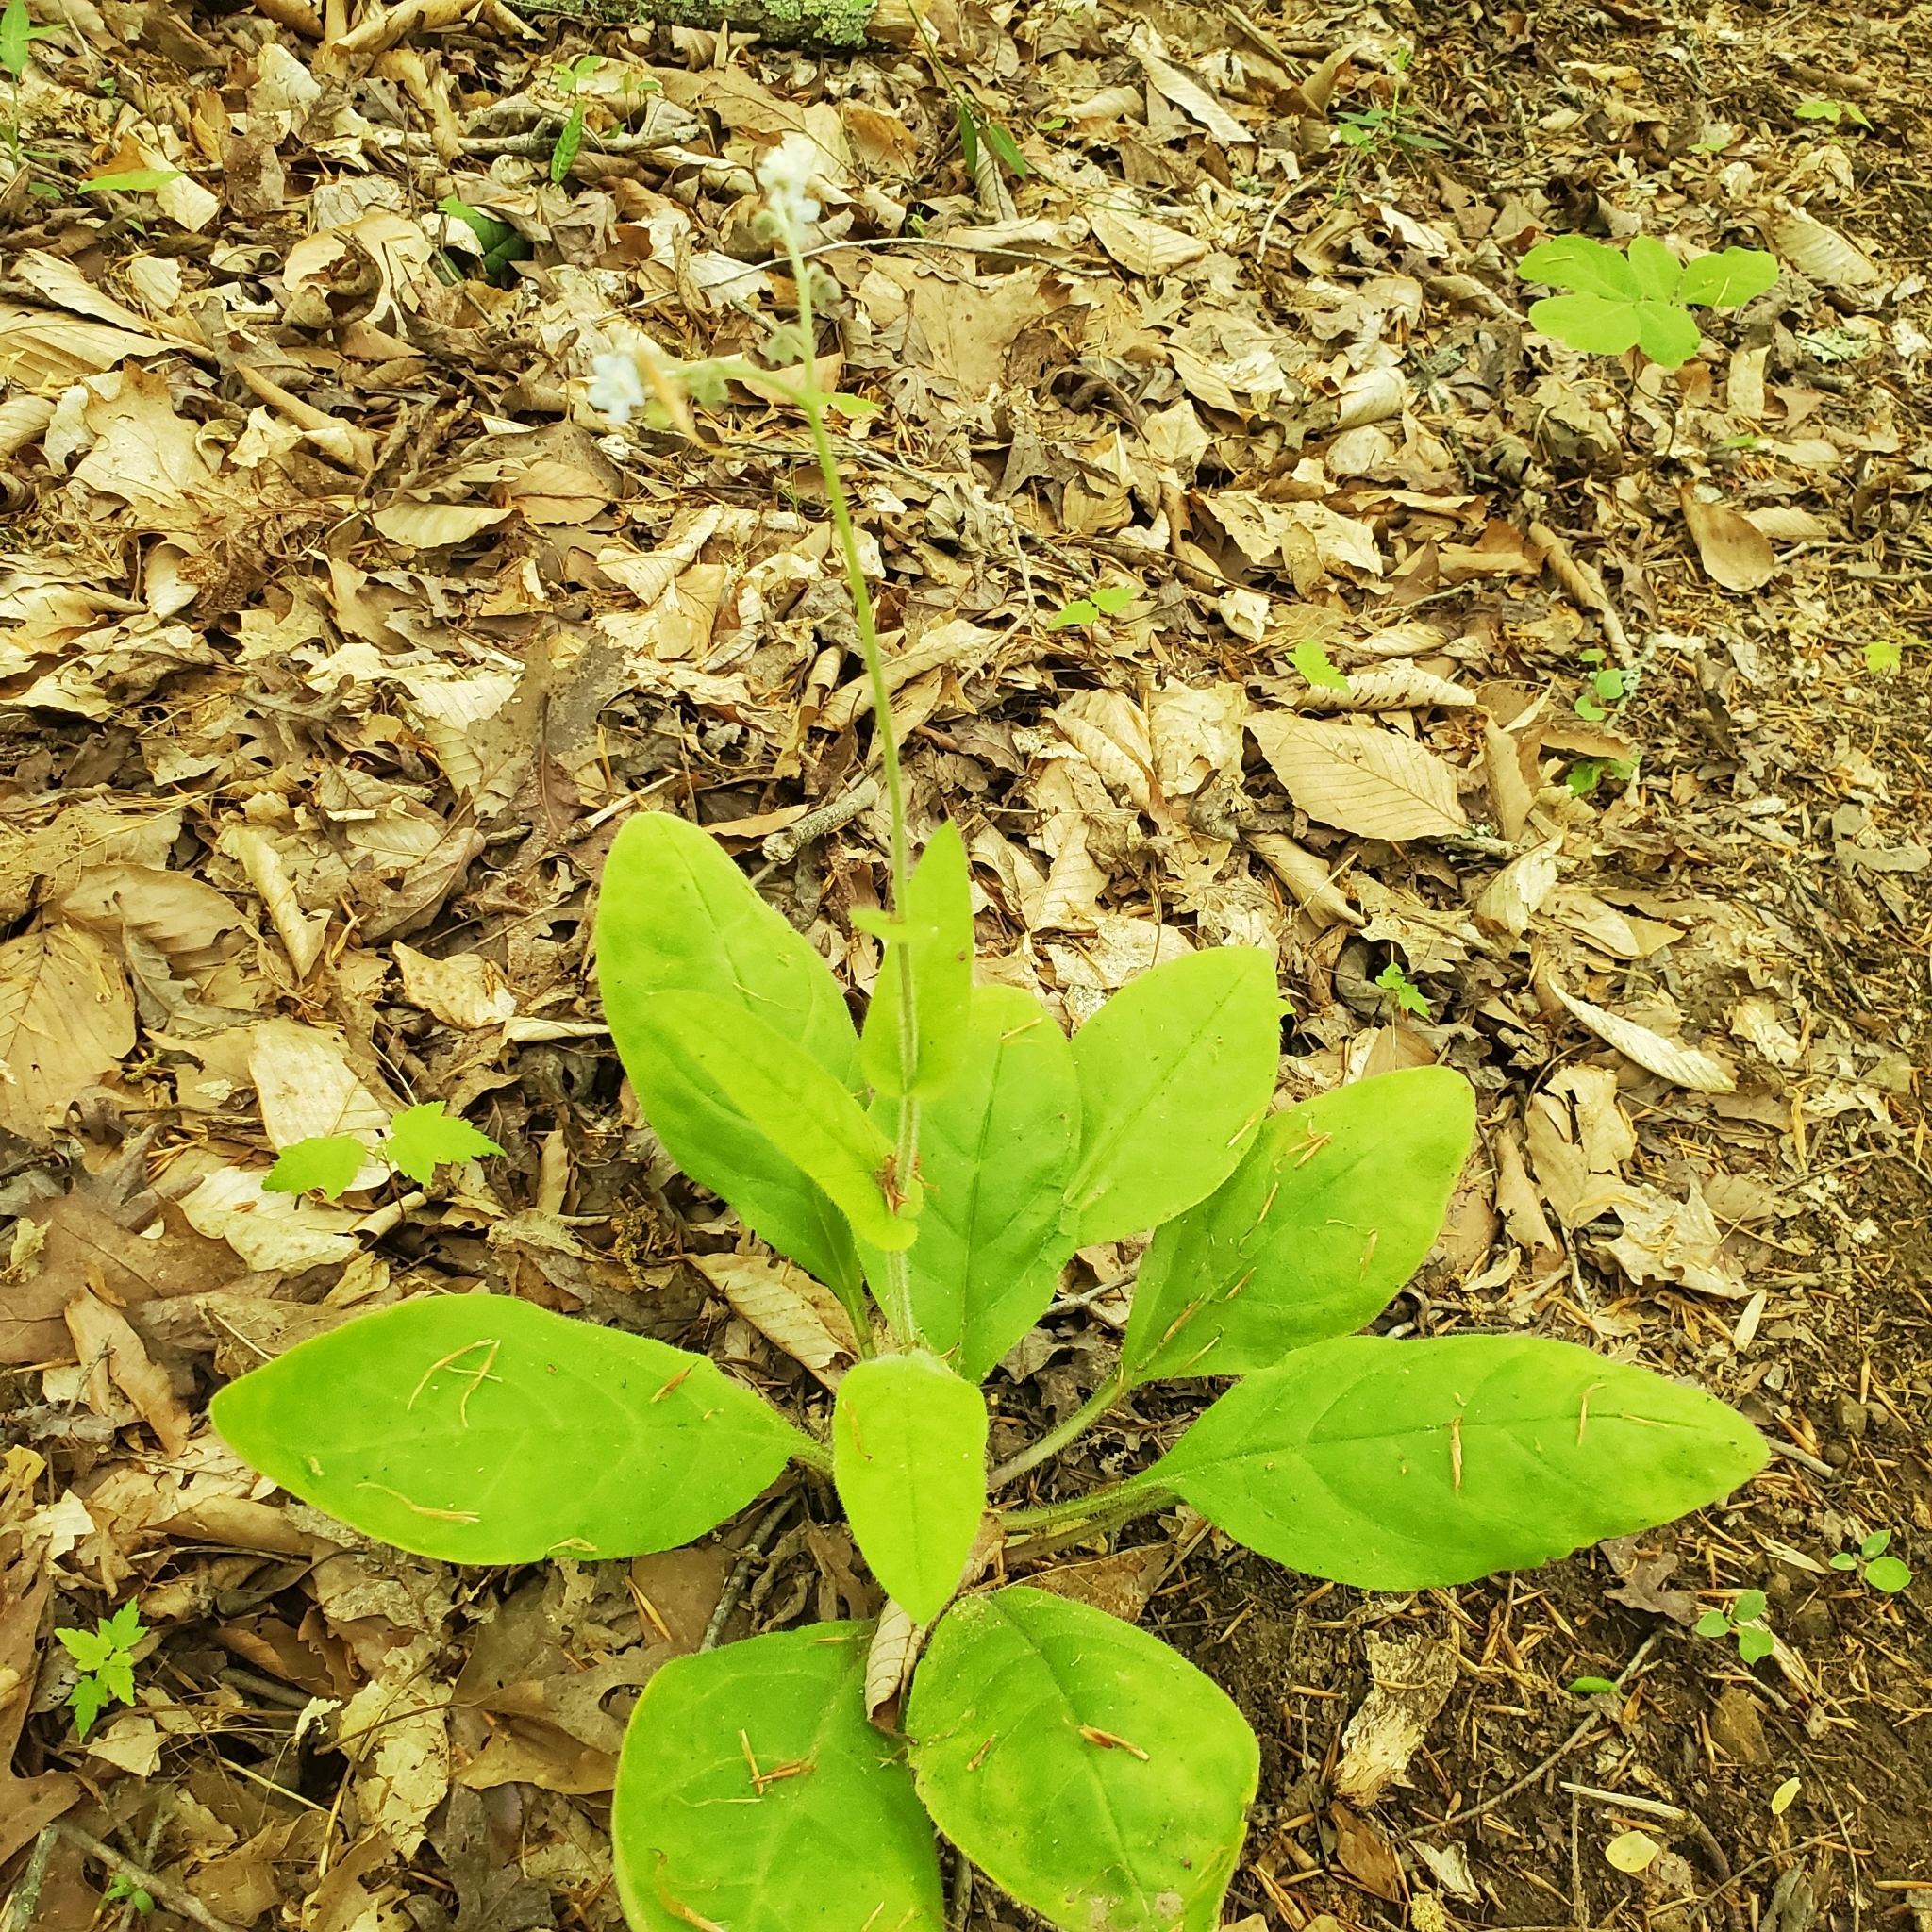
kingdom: Plantae
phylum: Tracheophyta
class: Magnoliopsida
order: Boraginales
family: Boraginaceae
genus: Andersonglossum
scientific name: Andersonglossum virginianum
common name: Wild comfrey
